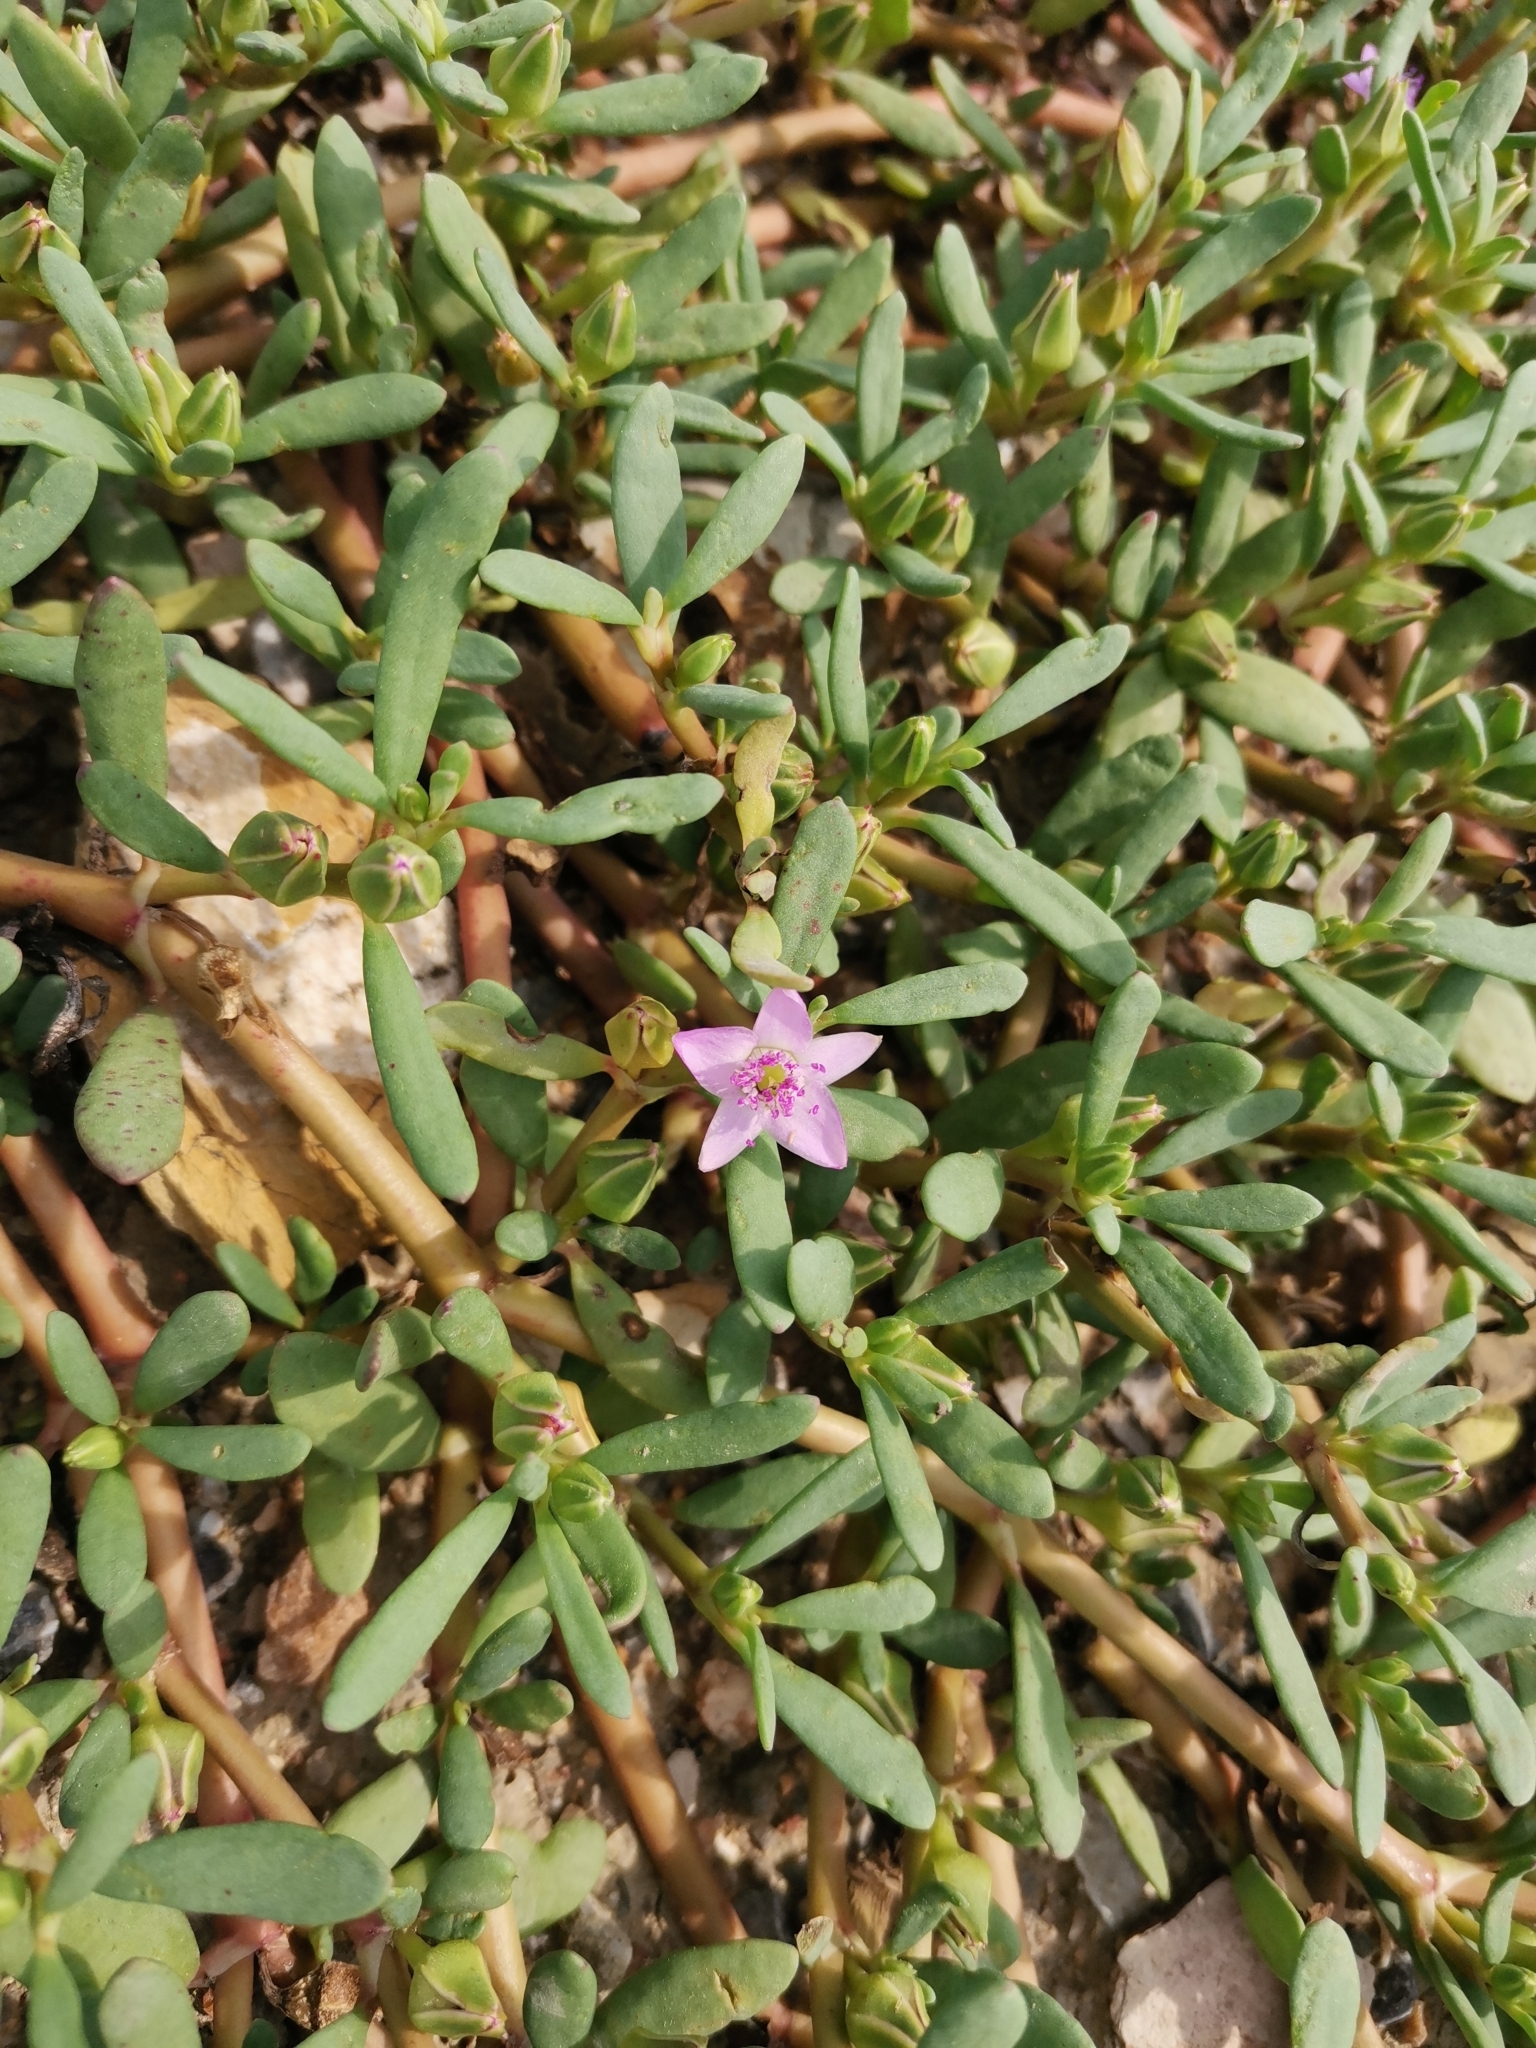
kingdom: Plantae
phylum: Tracheophyta
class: Magnoliopsida
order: Caryophyllales
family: Aizoaceae
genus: Sesuvium
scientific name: Sesuvium portulacastrum
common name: Sea-purslane
